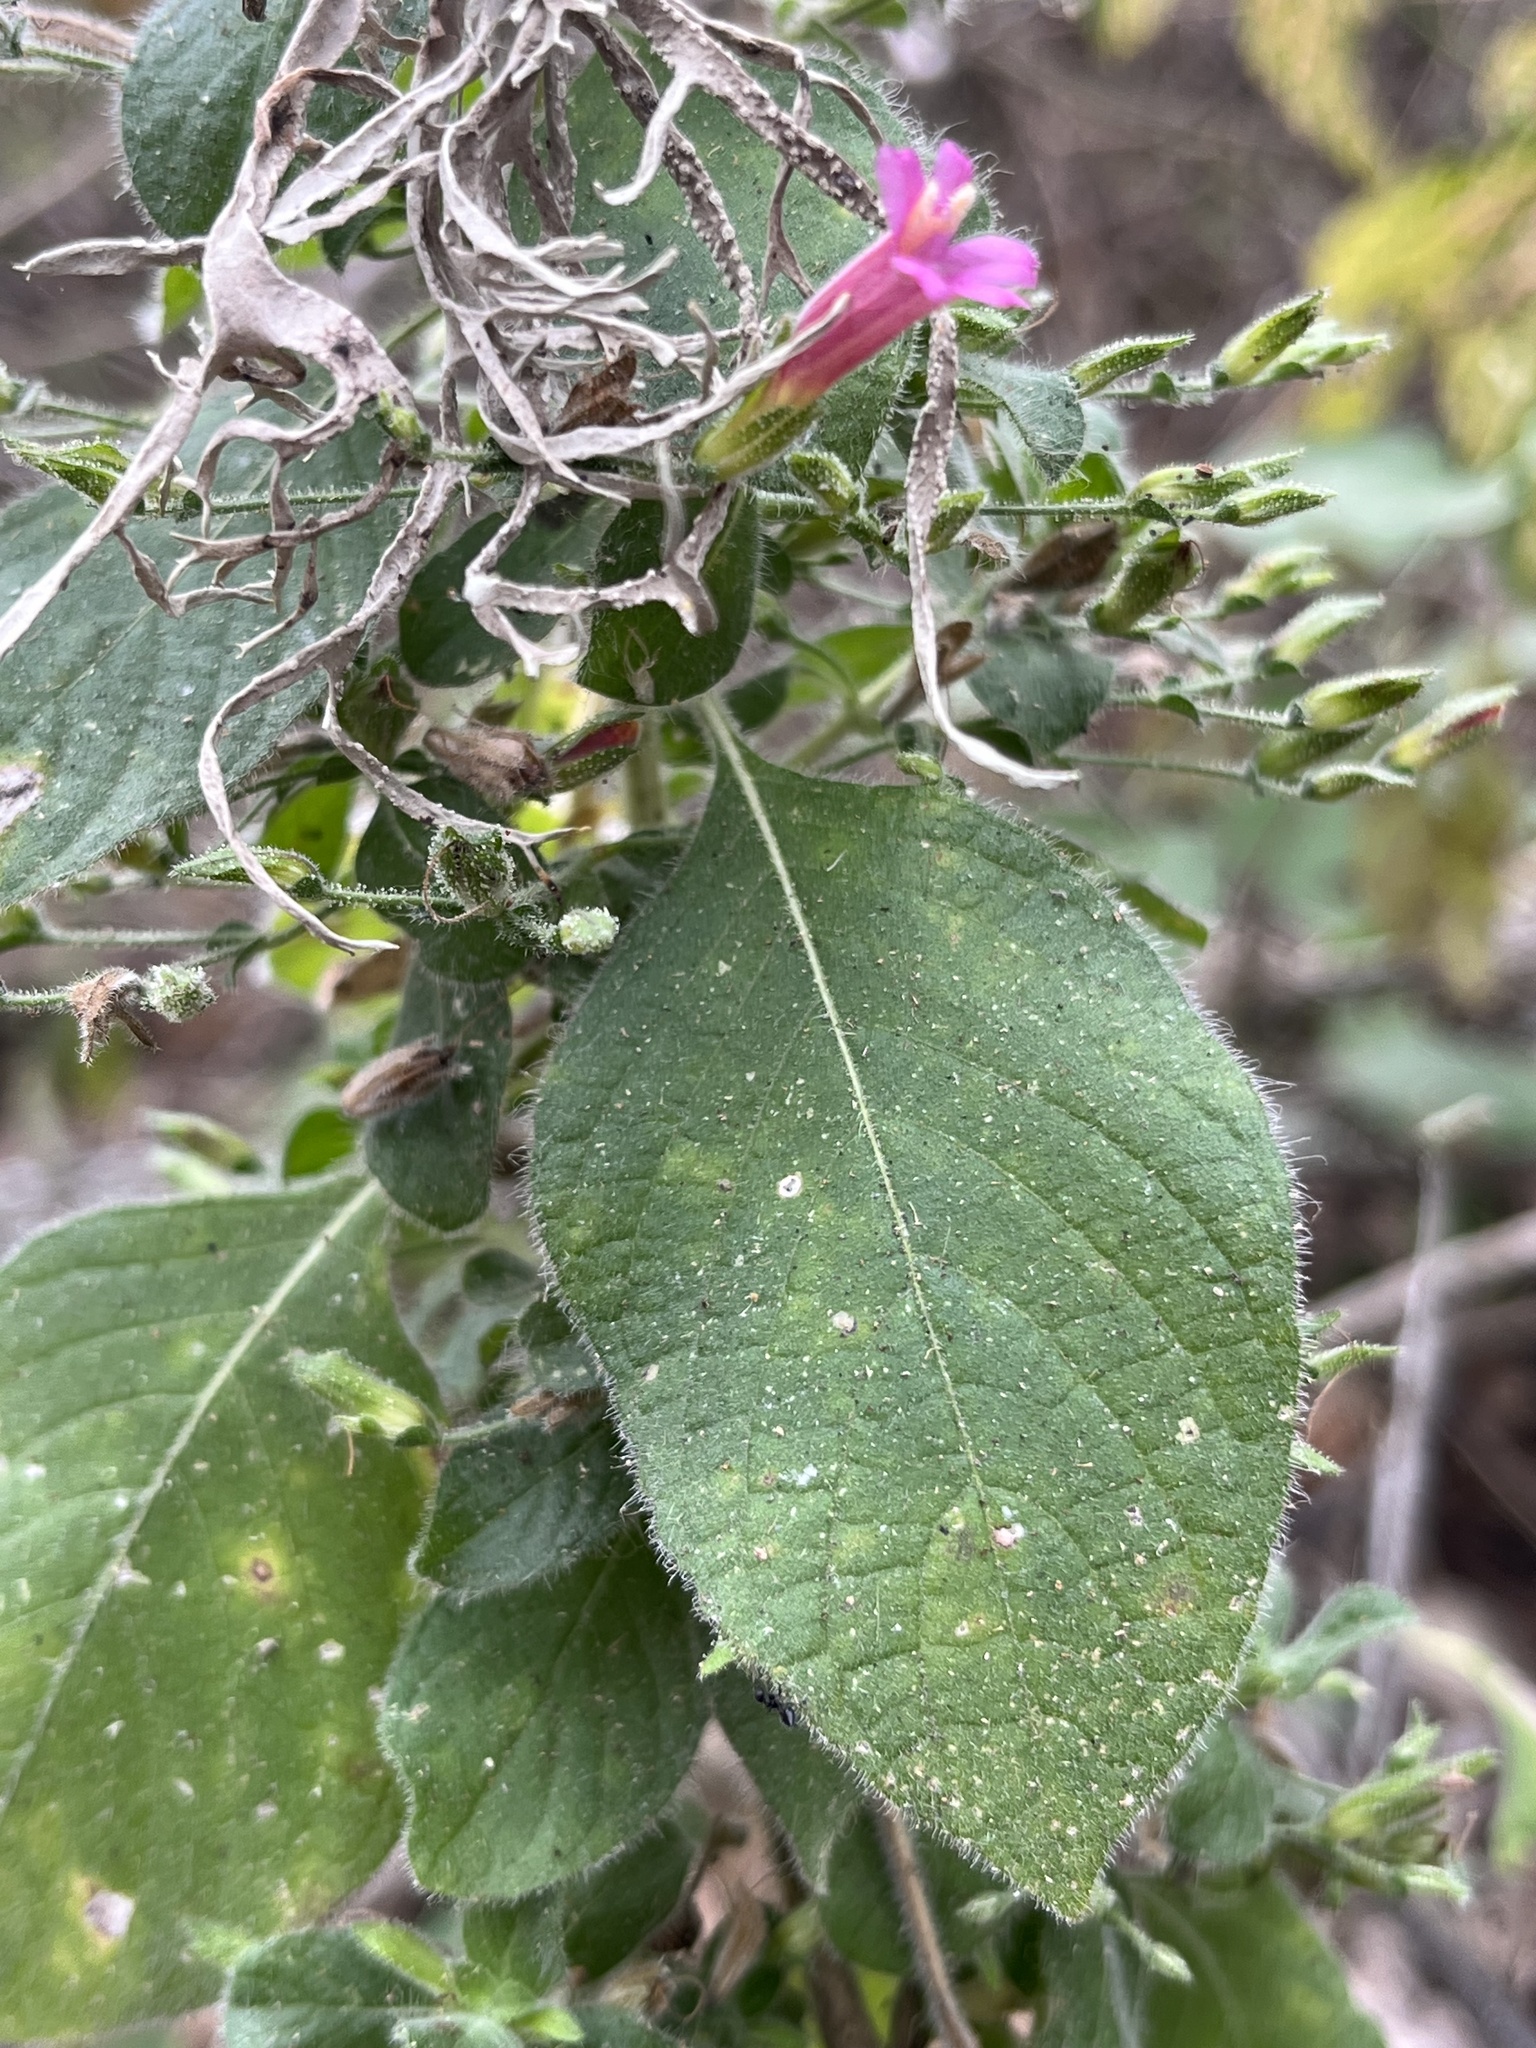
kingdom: Plantae
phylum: Tracheophyta
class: Magnoliopsida
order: Lamiales
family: Acanthaceae
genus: Ruellia
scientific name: Ruellia floribunda
